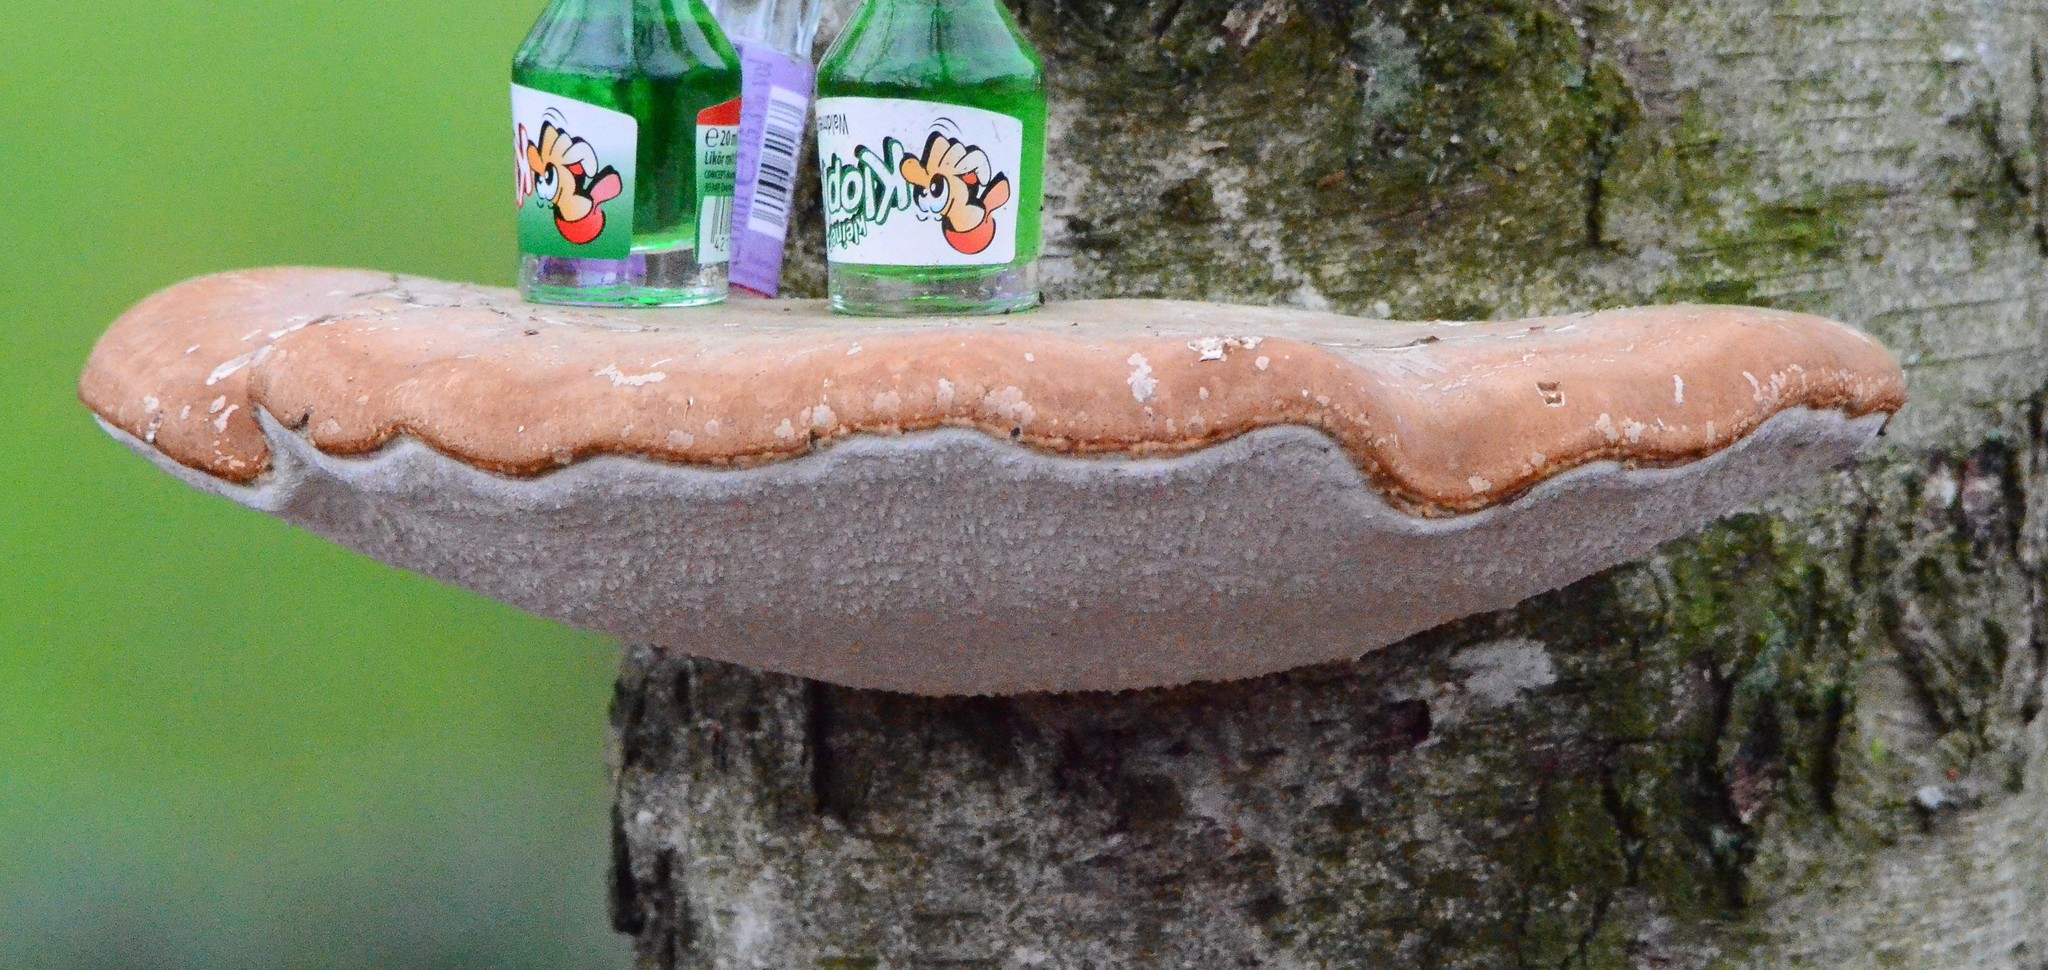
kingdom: Fungi
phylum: Basidiomycota
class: Agaricomycetes
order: Polyporales
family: Fomitopsidaceae
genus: Fomitopsis
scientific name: Fomitopsis betulina
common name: Birch polypore
